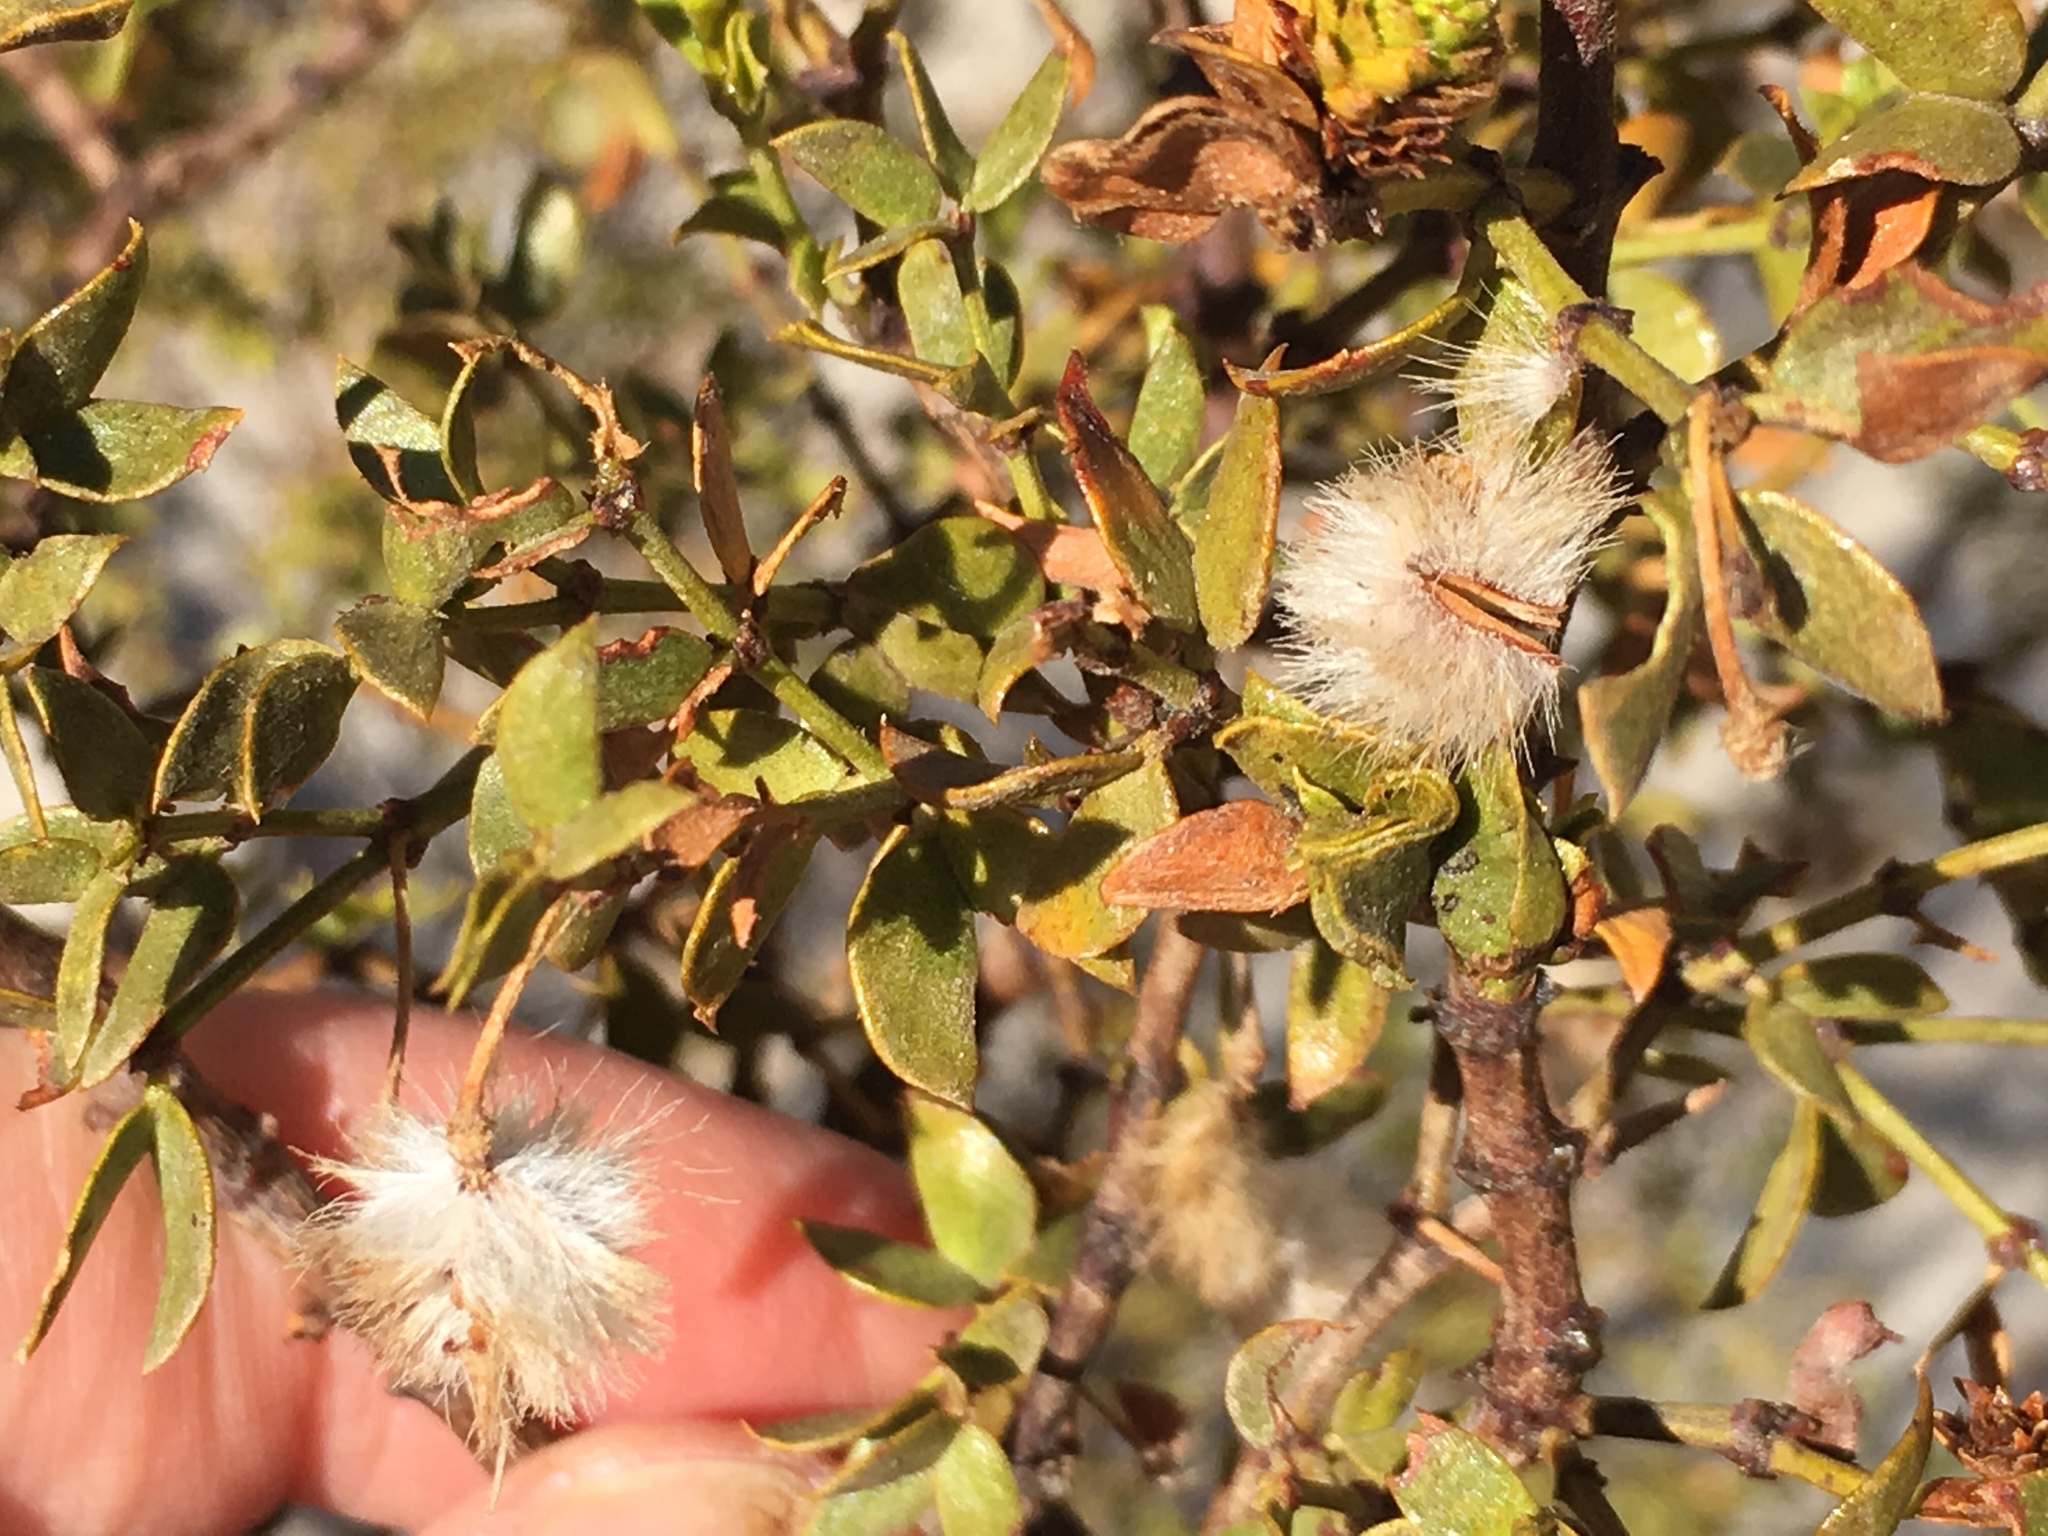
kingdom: Animalia
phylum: Arthropoda
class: Insecta
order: Diptera
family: Cecidomyiidae
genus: Asphondylia
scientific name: Asphondylia auripila
